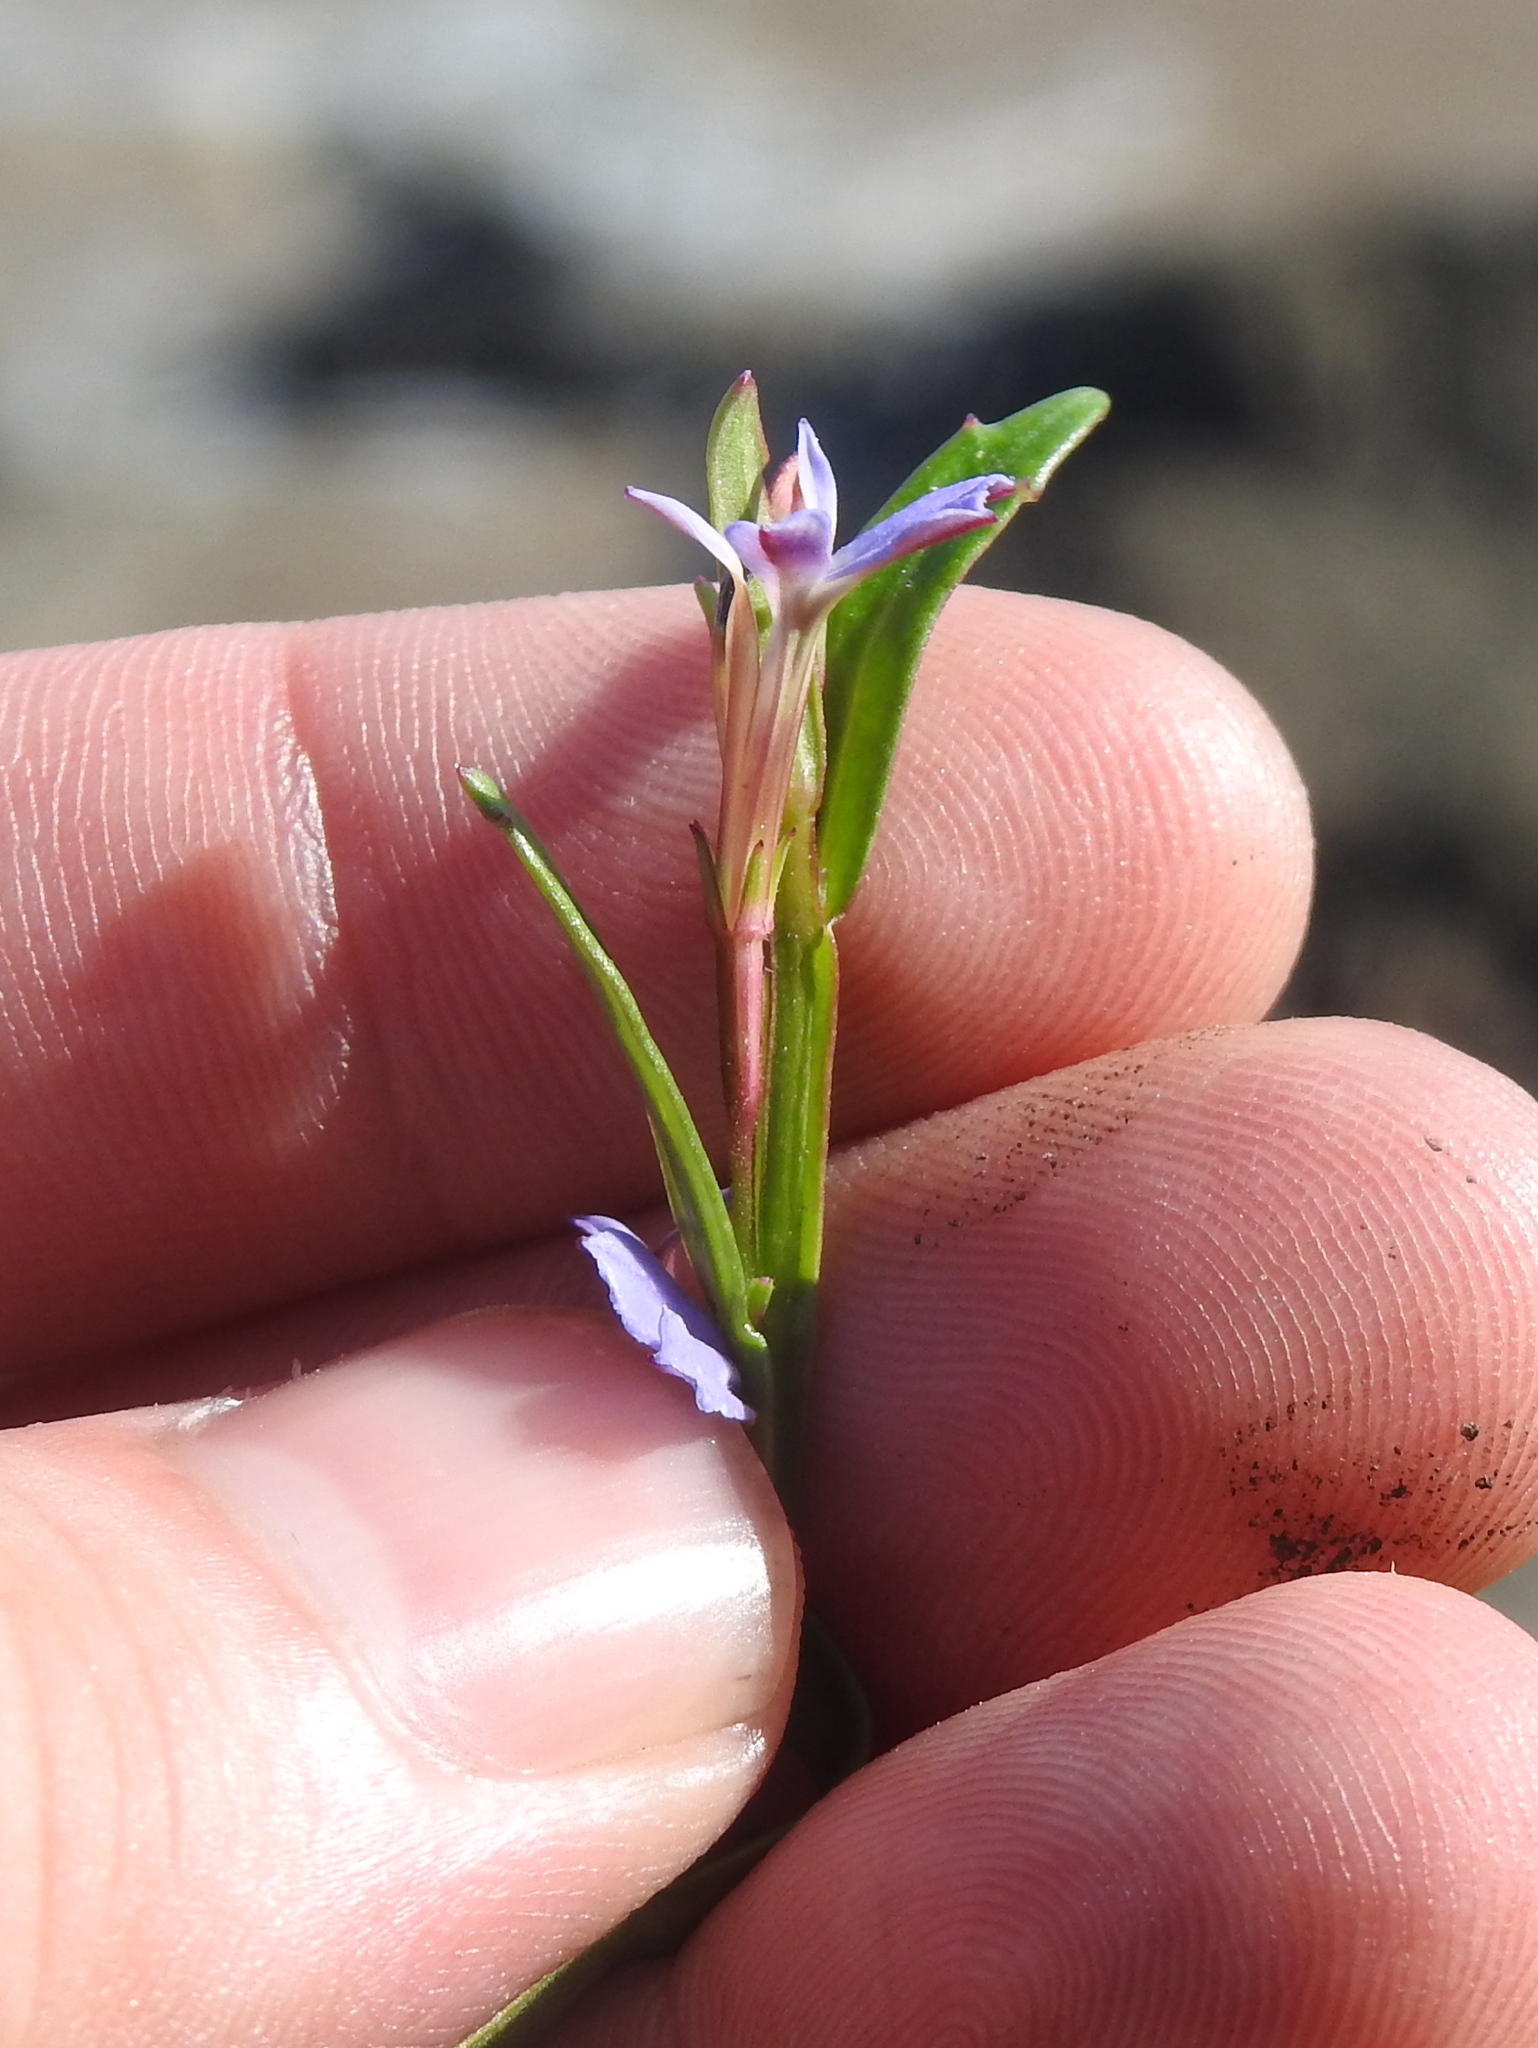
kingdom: Plantae
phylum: Tracheophyta
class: Magnoliopsida
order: Asterales
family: Campanulaceae
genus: Lobelia
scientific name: Lobelia anceps
